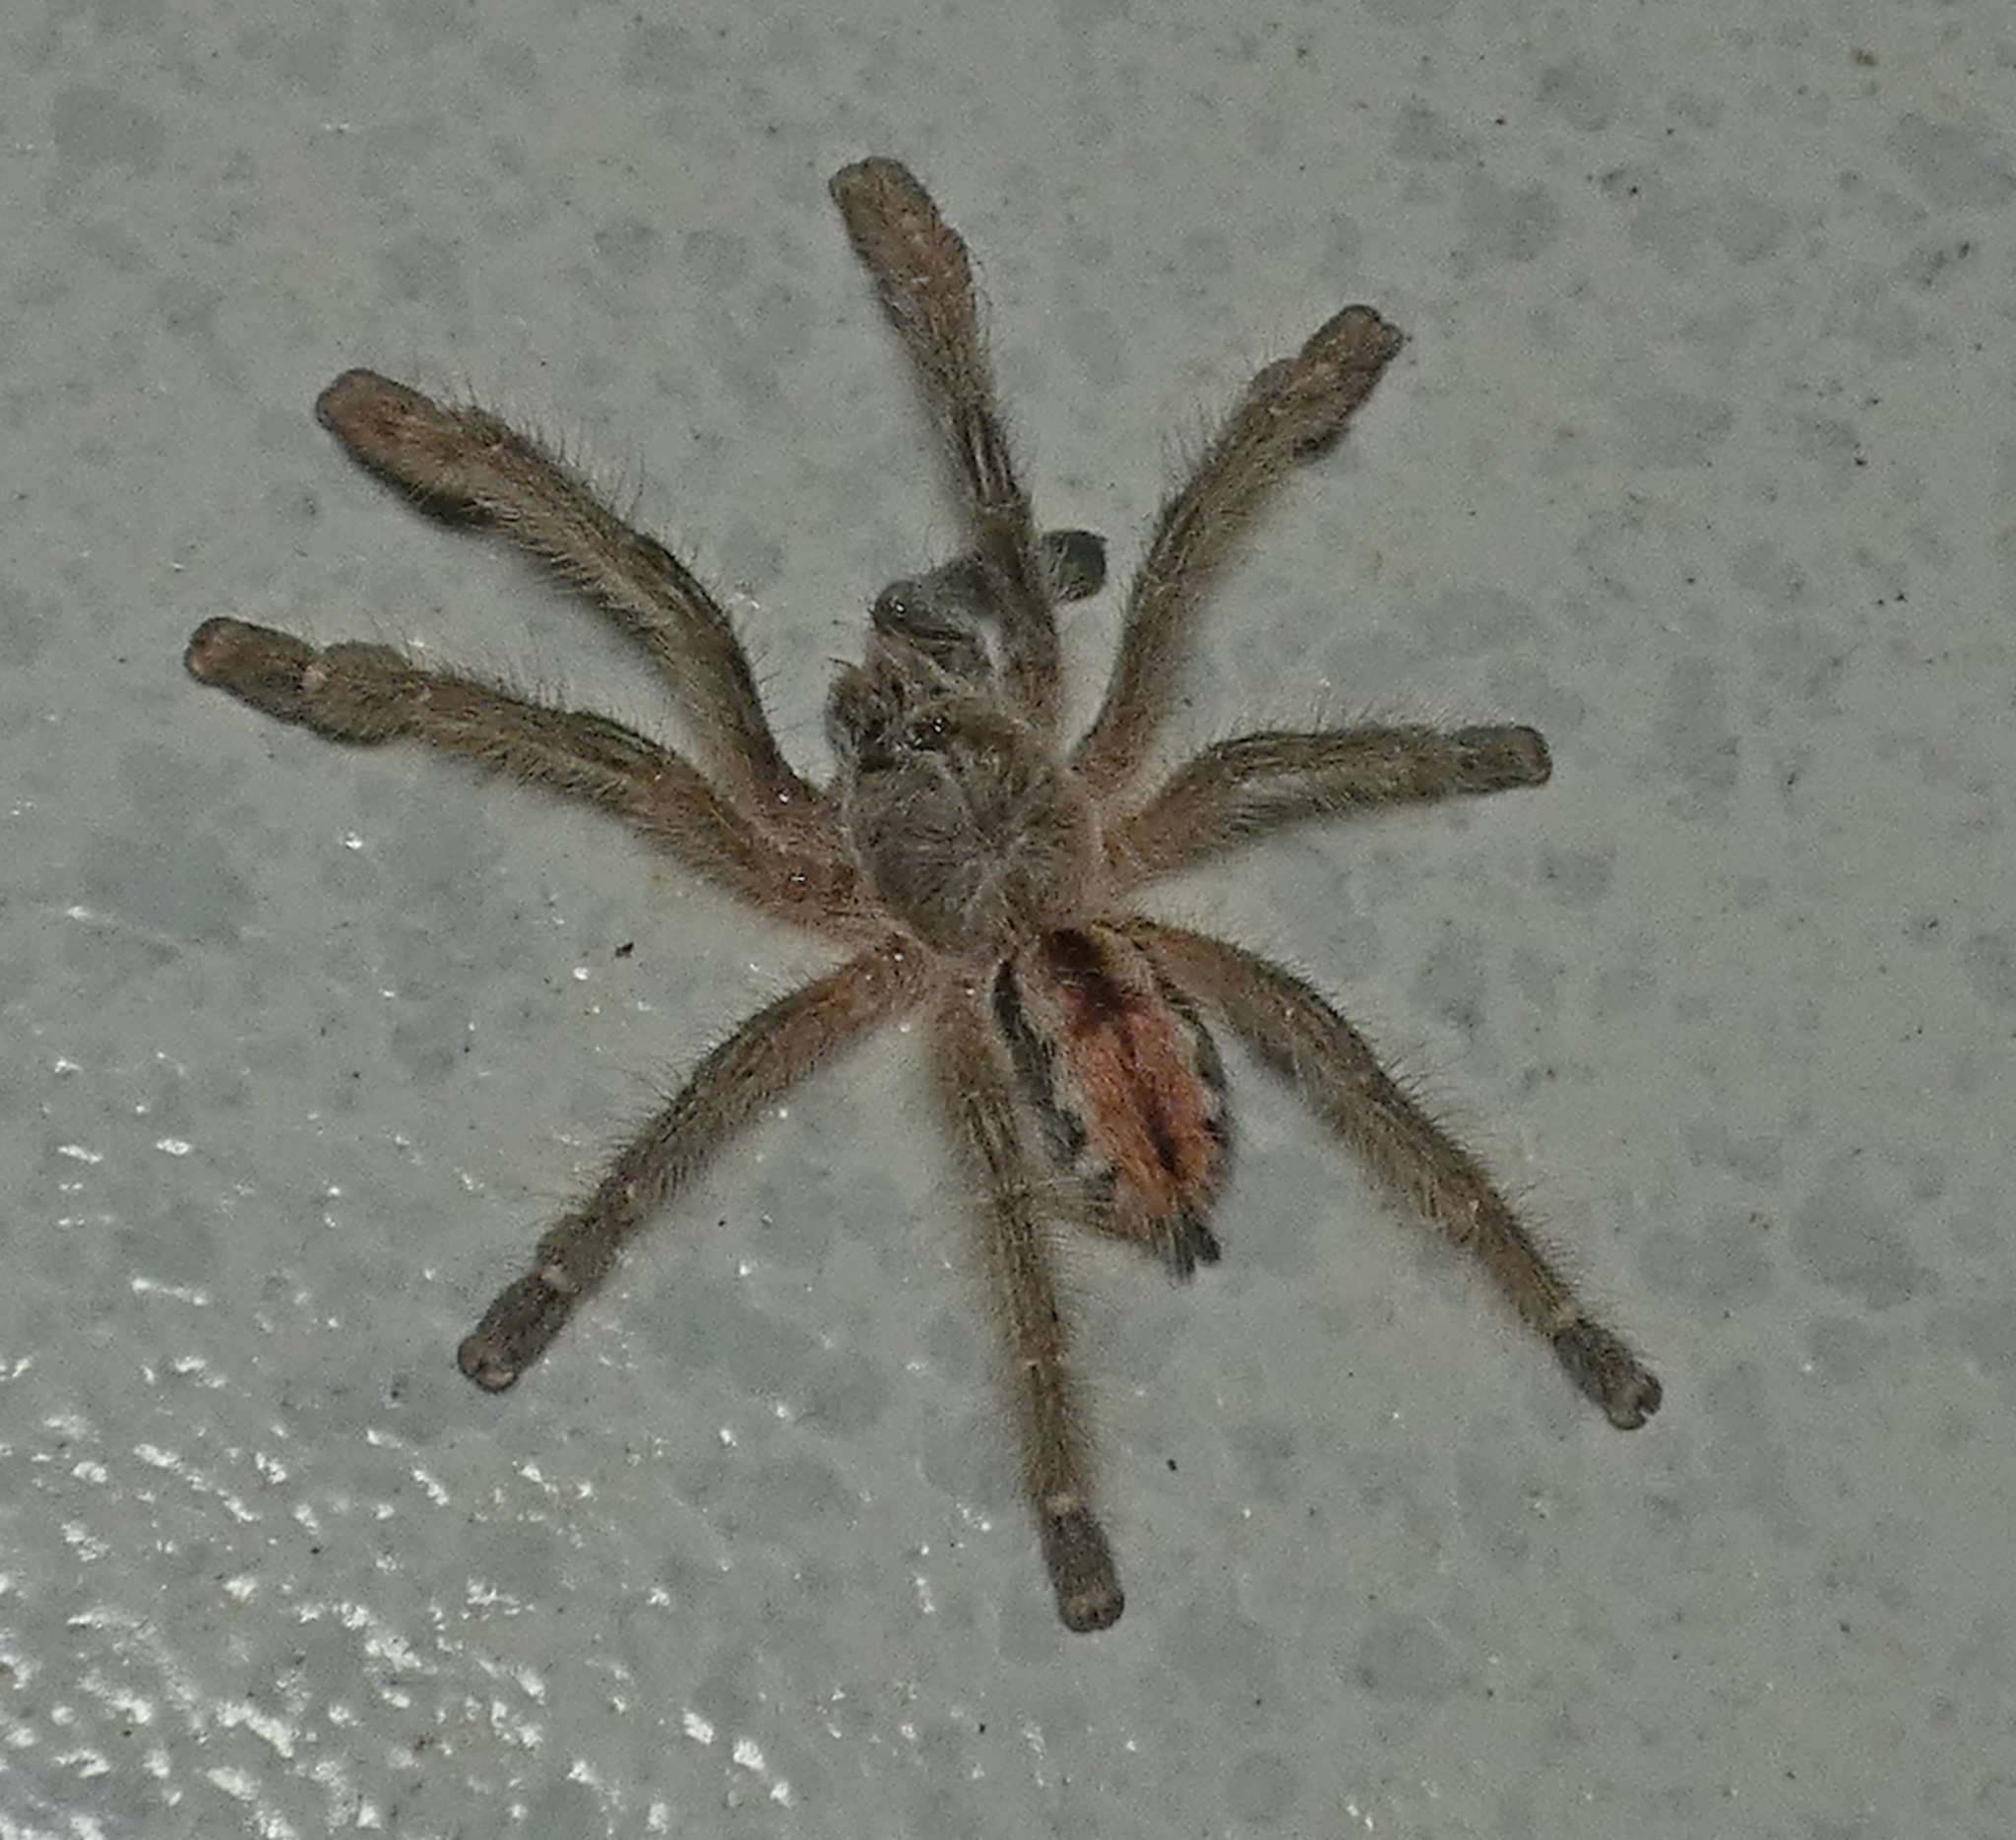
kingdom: Animalia
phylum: Arthropoda
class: Arachnida
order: Araneae
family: Theraphosidae
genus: Iridopelma
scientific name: Iridopelma hirsutum
